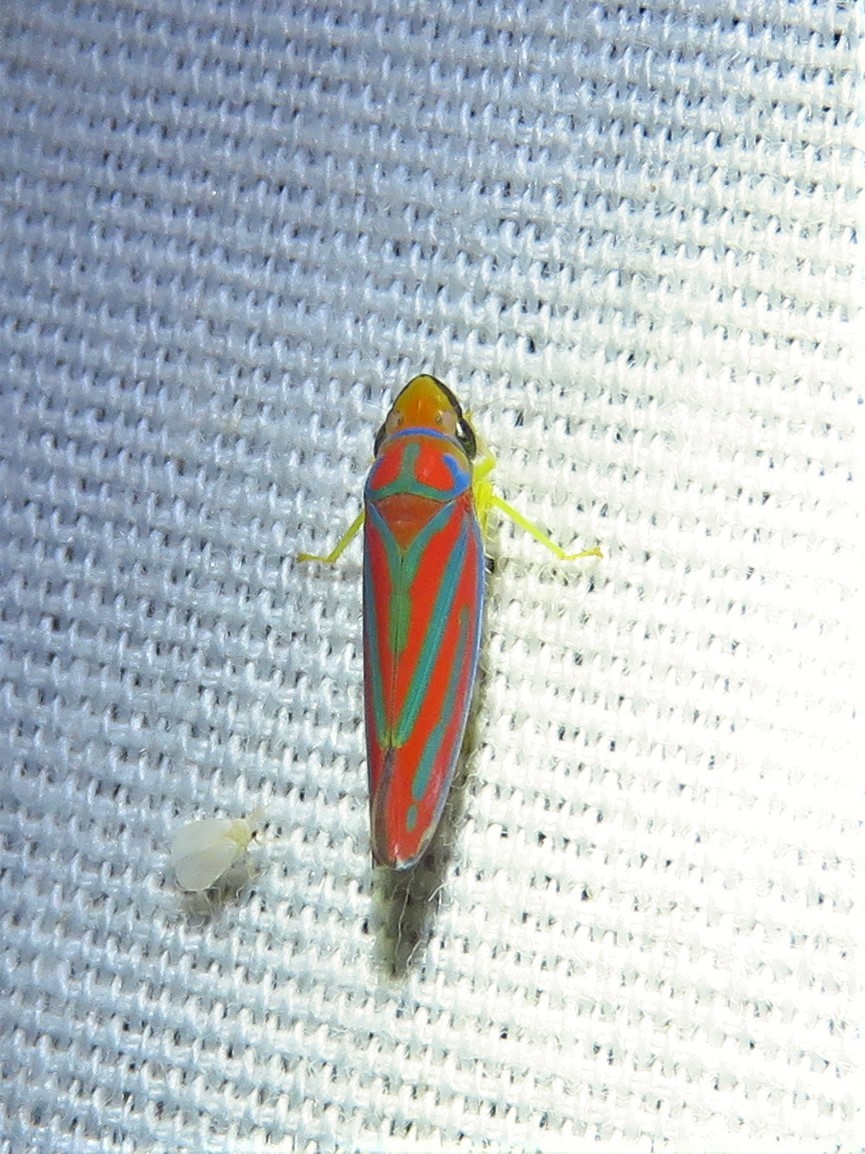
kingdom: Animalia
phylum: Arthropoda
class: Insecta
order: Hemiptera
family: Cicadellidae
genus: Graphocephala
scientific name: Graphocephala coccinea
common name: Candy-striped leafhopper
